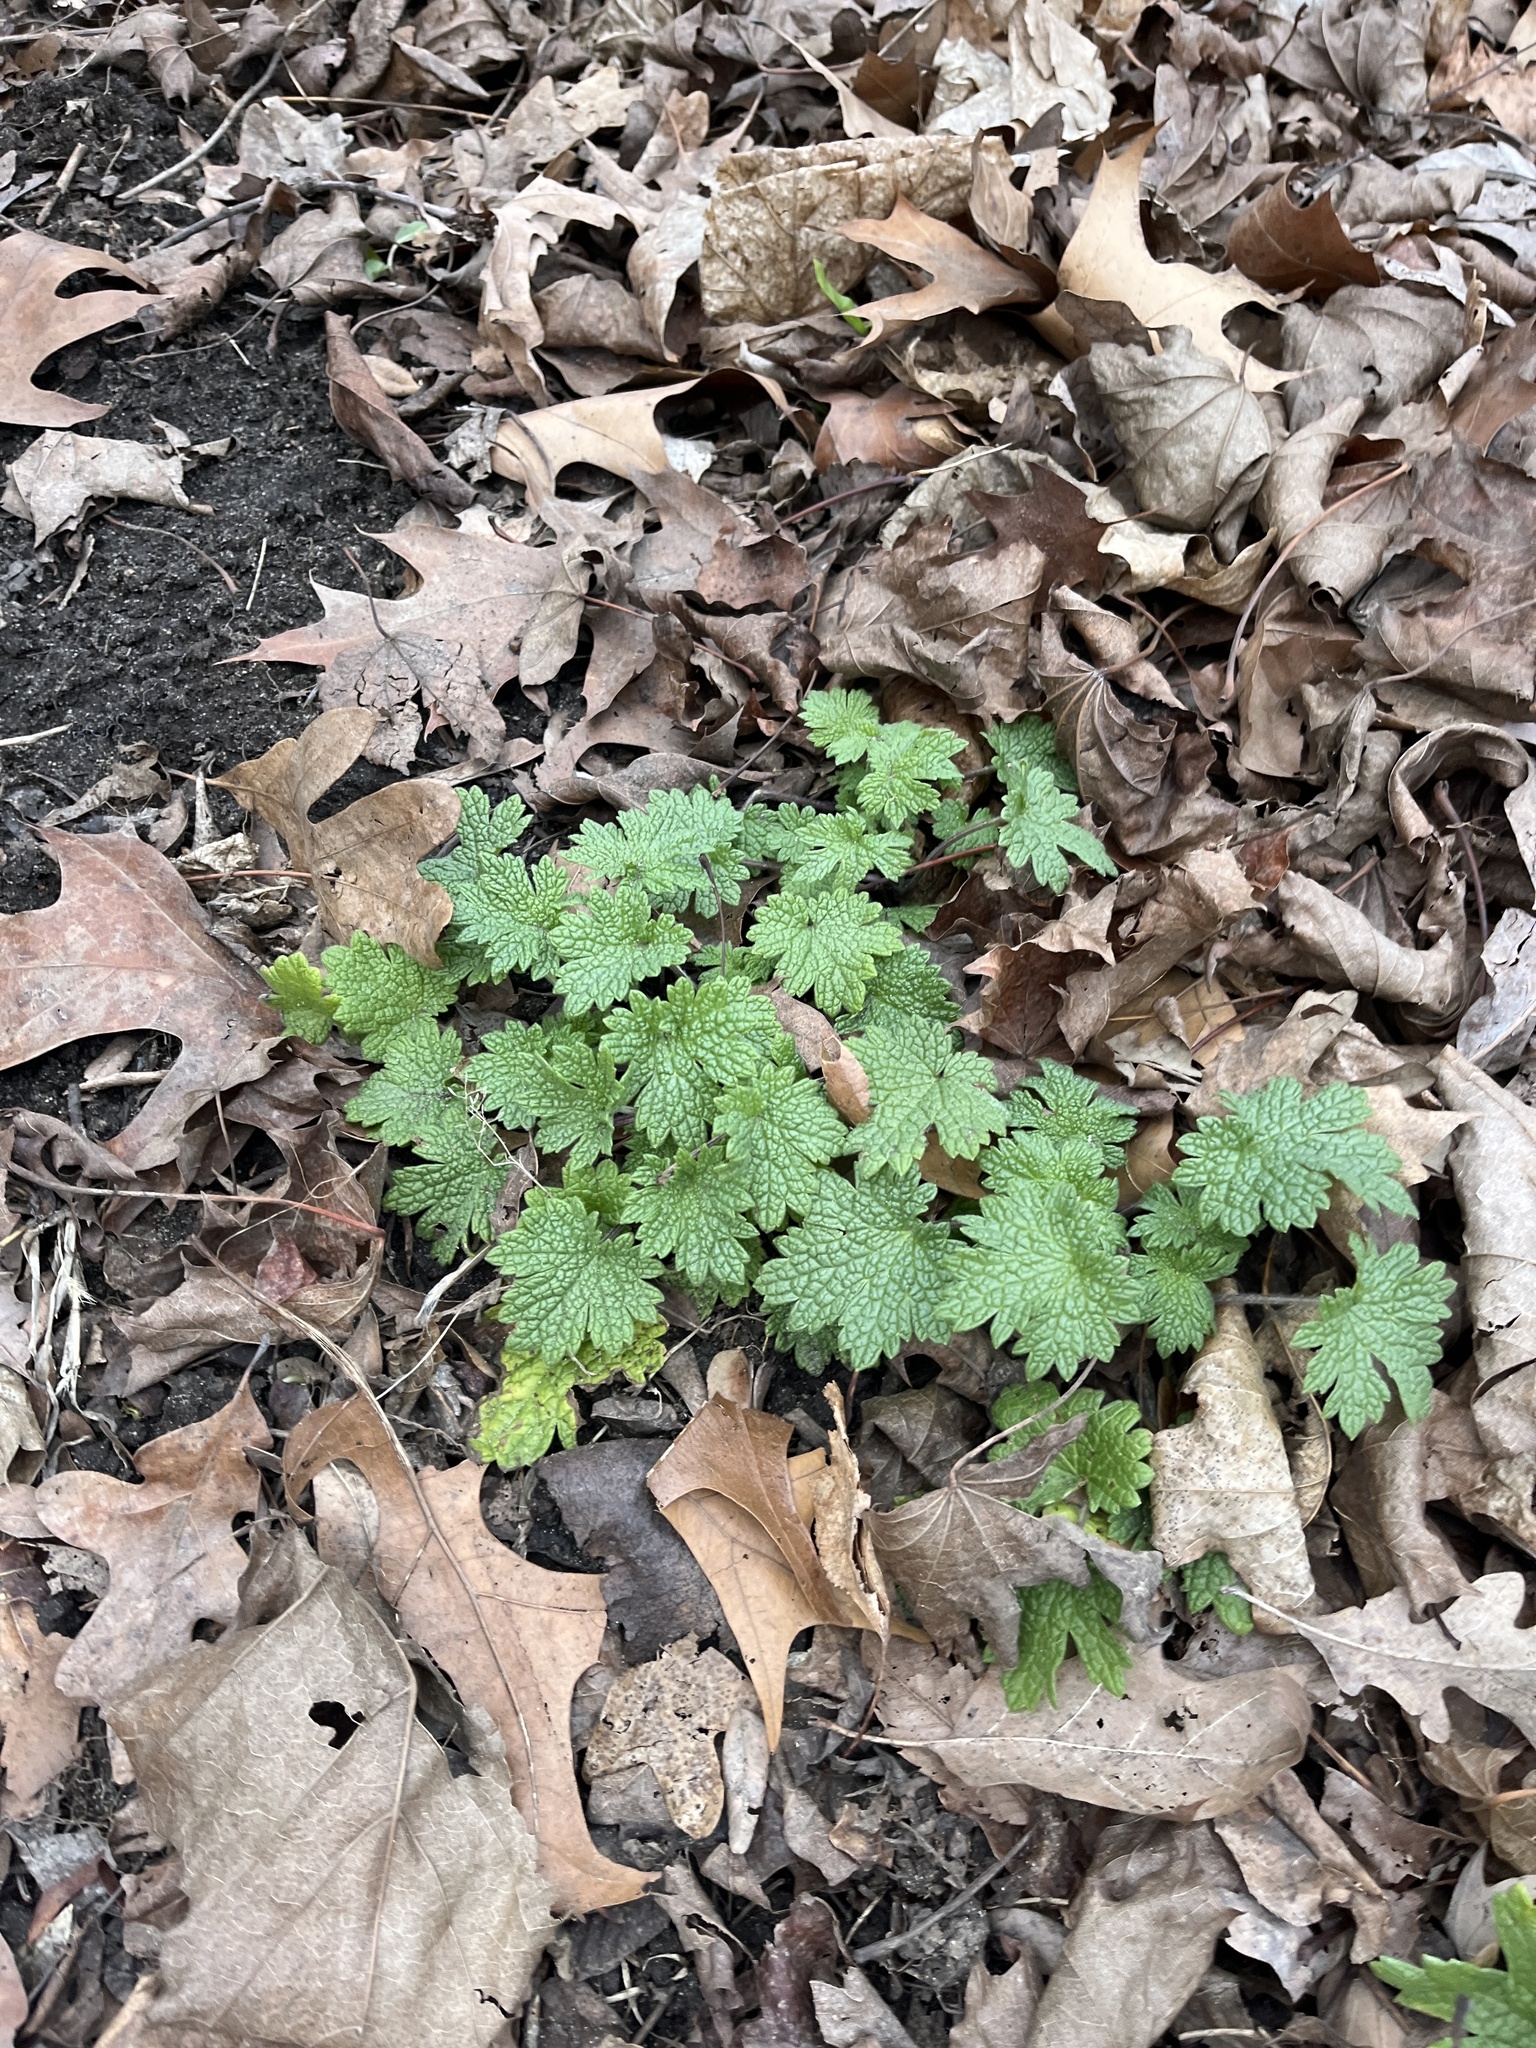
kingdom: Plantae
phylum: Tracheophyta
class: Magnoliopsida
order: Lamiales
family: Lamiaceae
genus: Leonurus
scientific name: Leonurus cardiaca
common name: Motherwort
